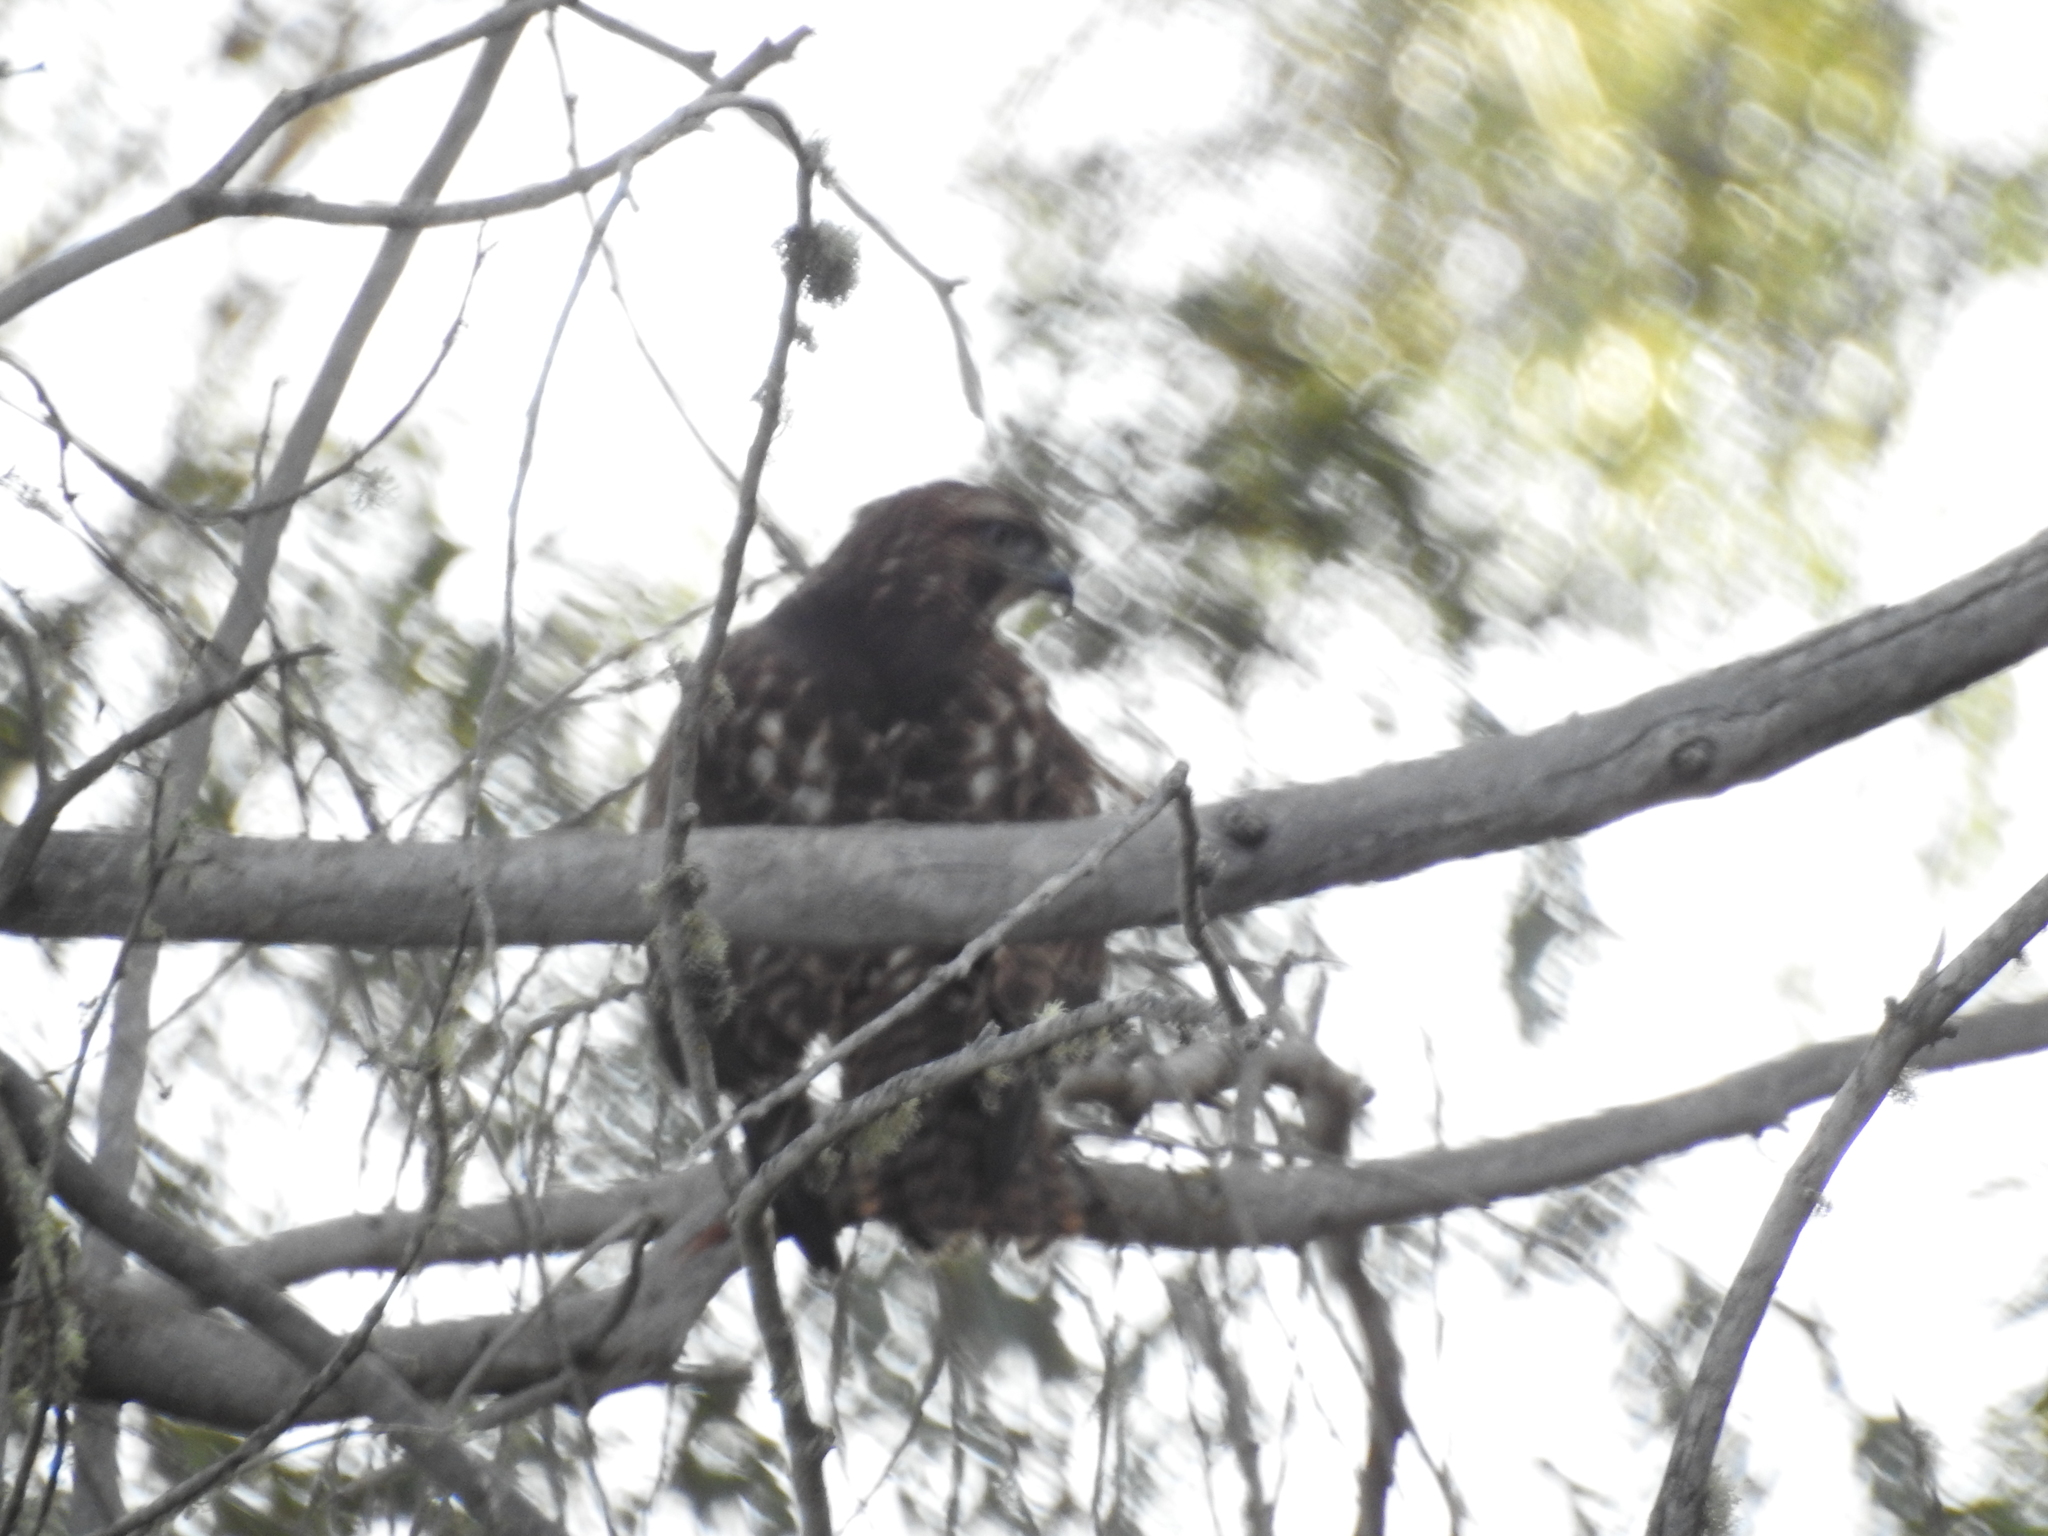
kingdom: Animalia
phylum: Chordata
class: Aves
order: Accipitriformes
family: Accipitridae
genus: Buteo
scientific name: Buteo jamaicensis
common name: Red-tailed hawk
